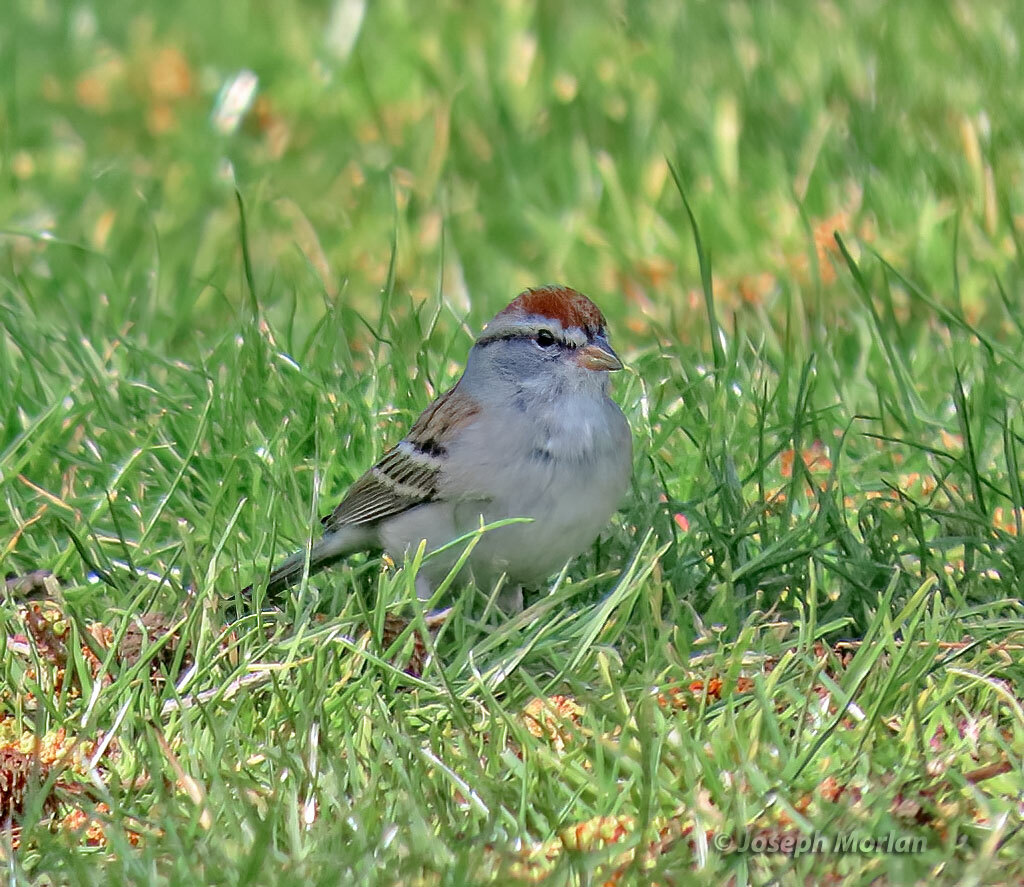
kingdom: Animalia
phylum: Chordata
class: Aves
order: Passeriformes
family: Passerellidae
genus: Spizella
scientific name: Spizella passerina
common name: Chipping sparrow
